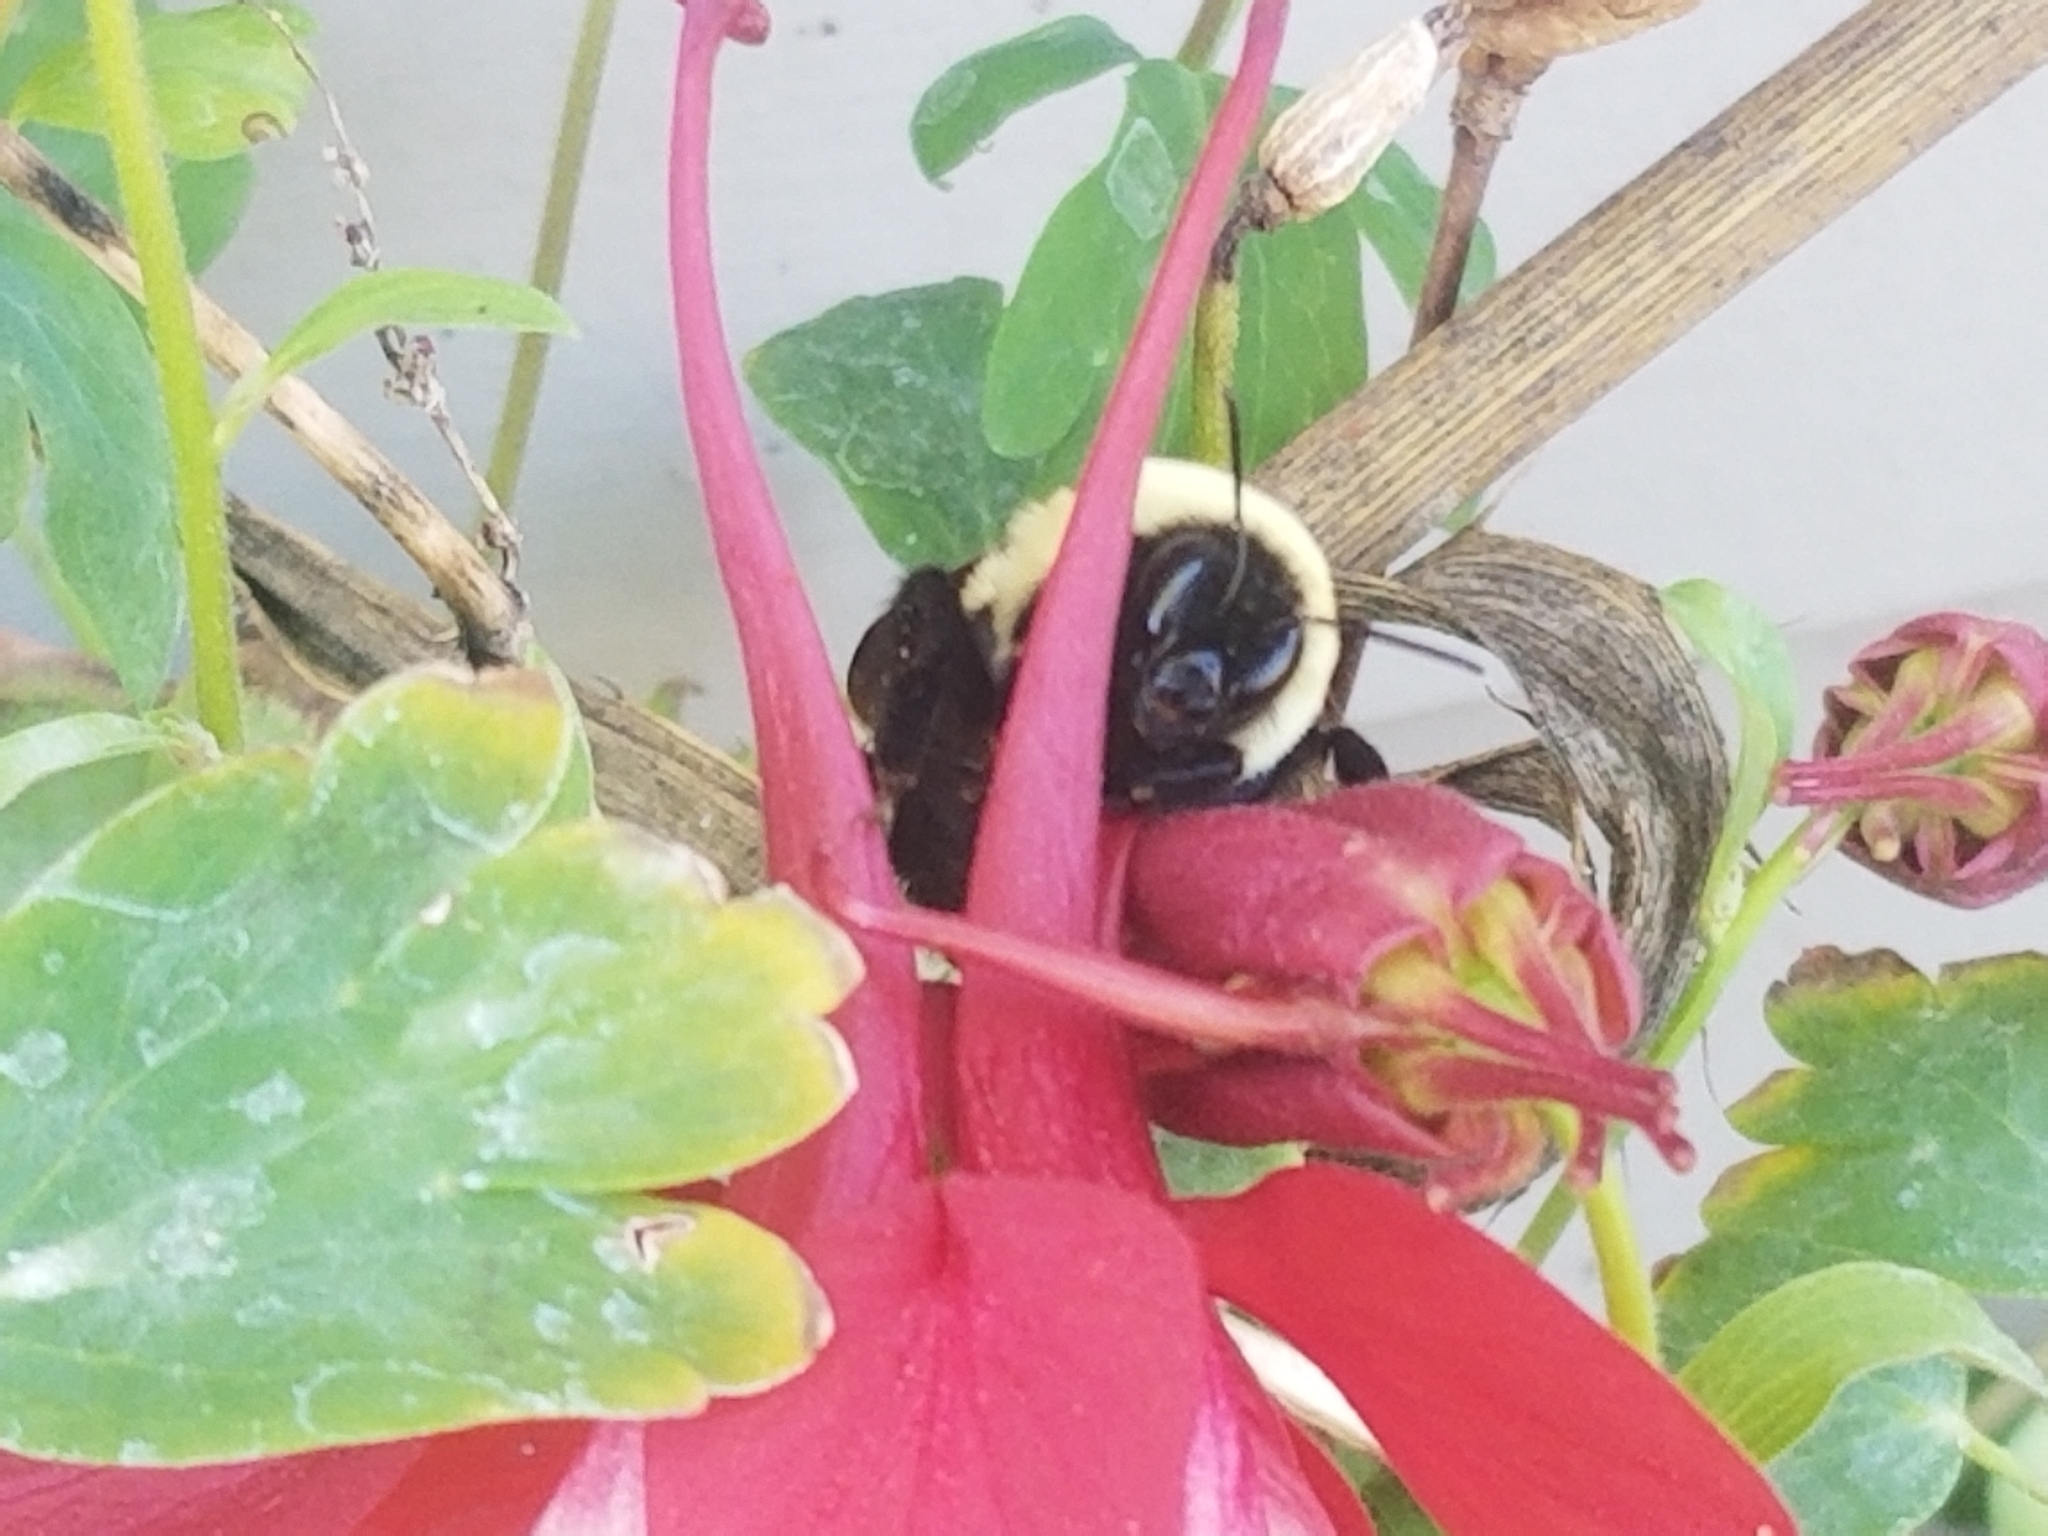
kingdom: Animalia
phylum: Arthropoda
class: Insecta
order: Hymenoptera
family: Apidae
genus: Bombus
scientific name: Bombus griseocollis
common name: Brown-belted bumble bee
